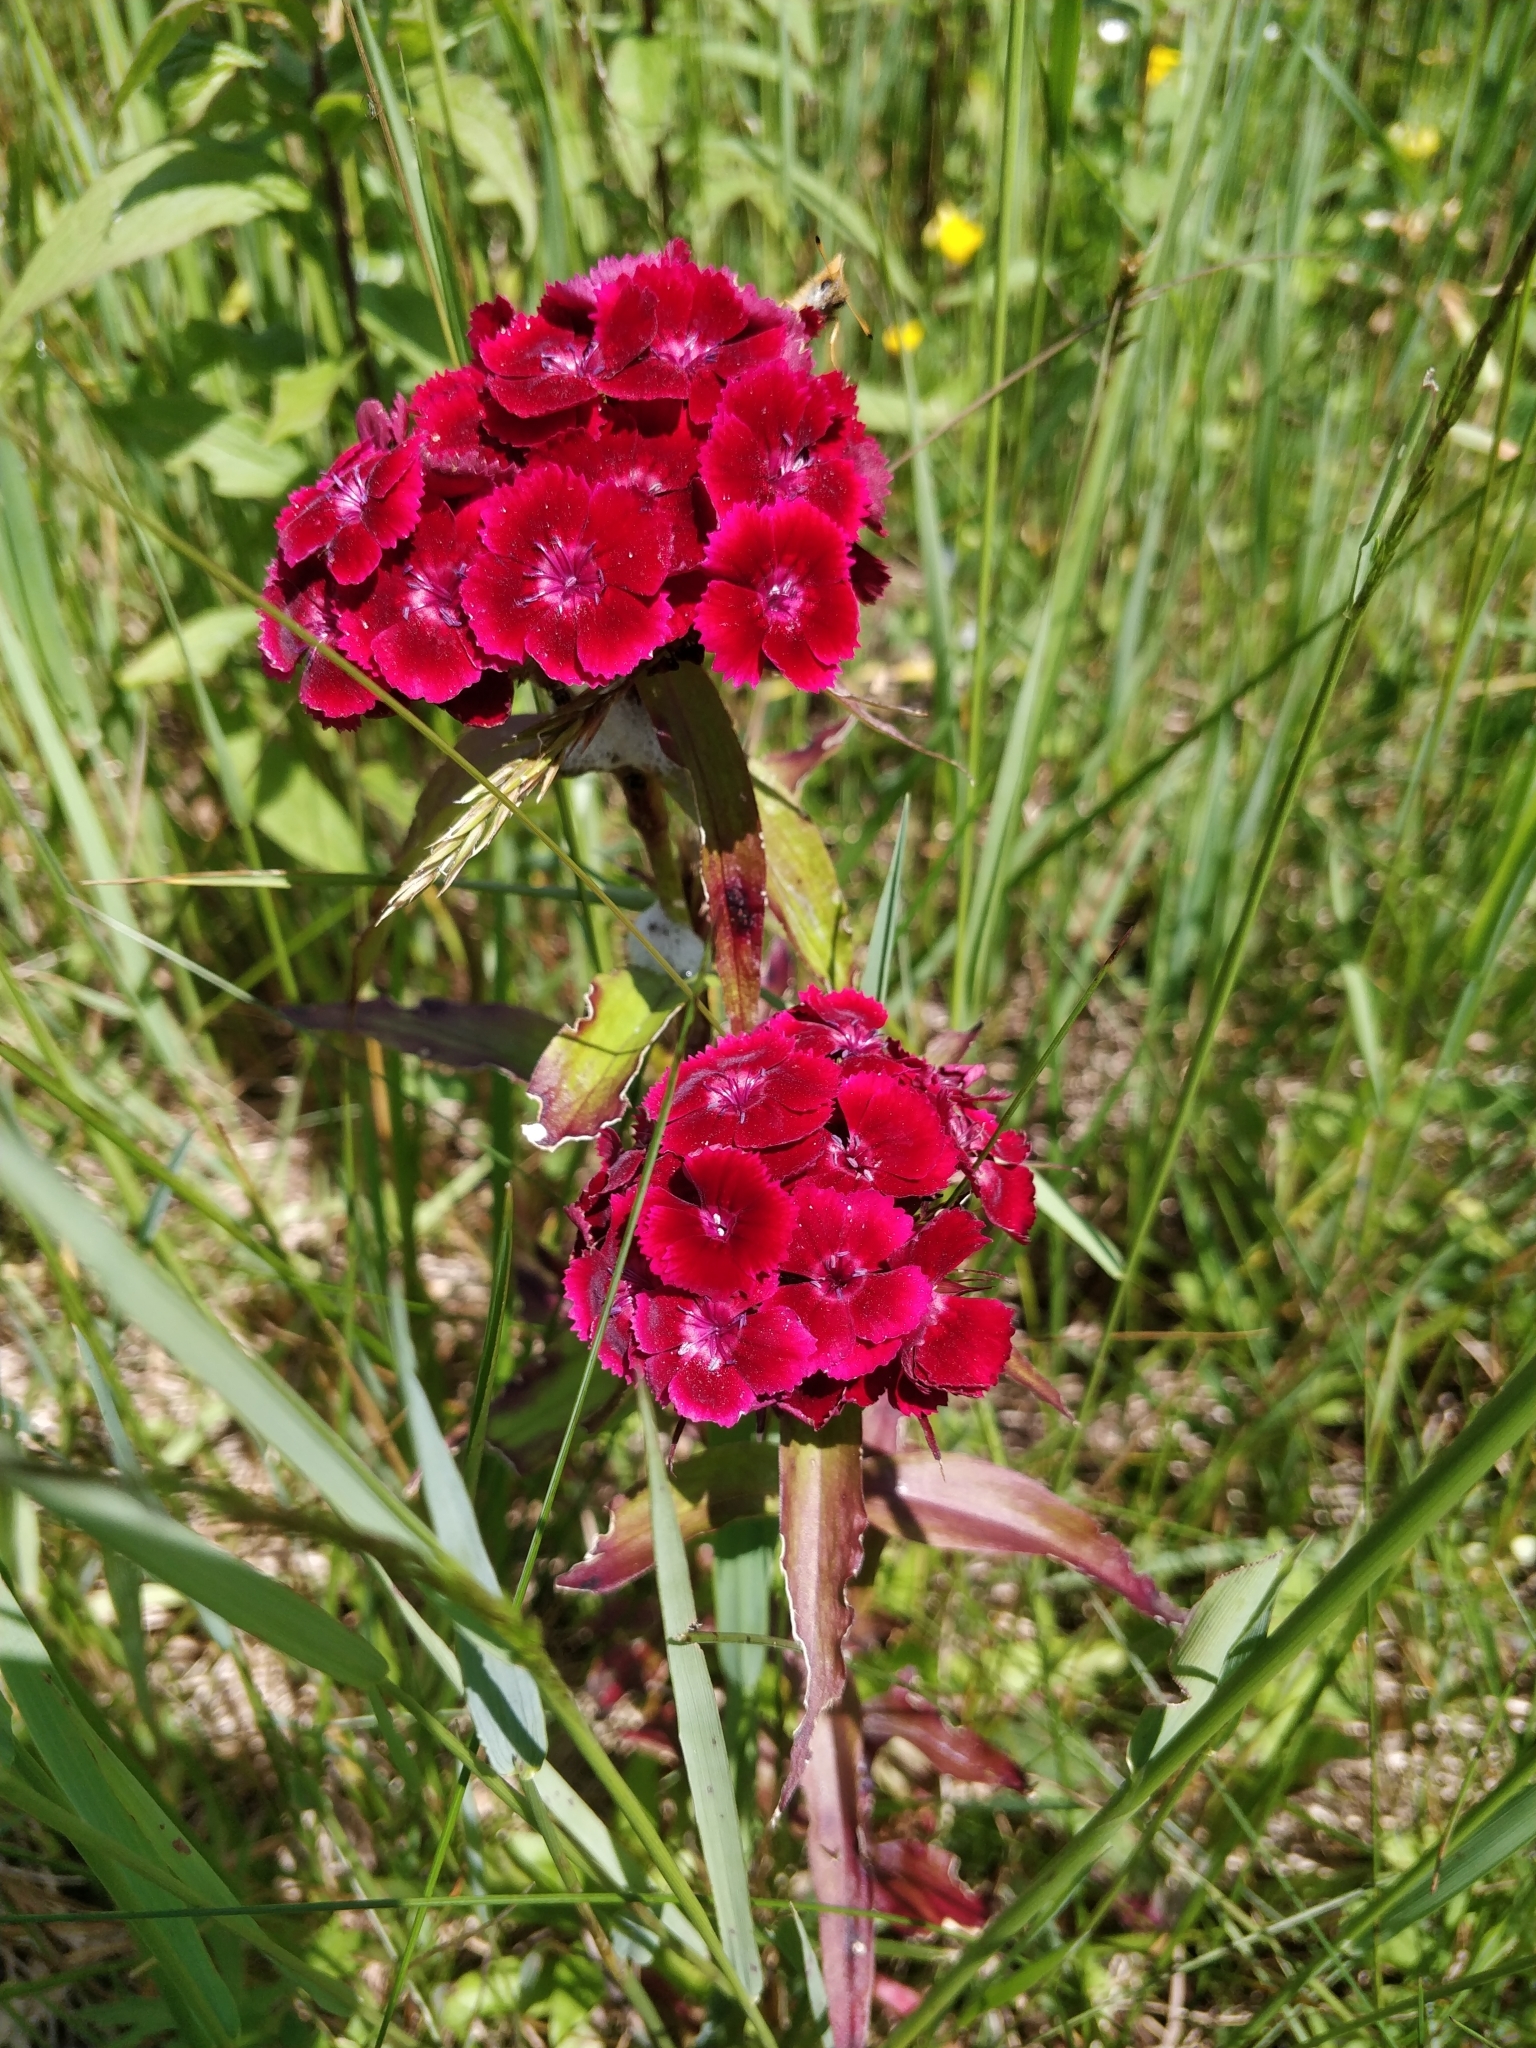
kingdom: Plantae
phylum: Tracheophyta
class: Magnoliopsida
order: Caryophyllales
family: Caryophyllaceae
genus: Dianthus
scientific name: Dianthus barbatus
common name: Sweet-william
